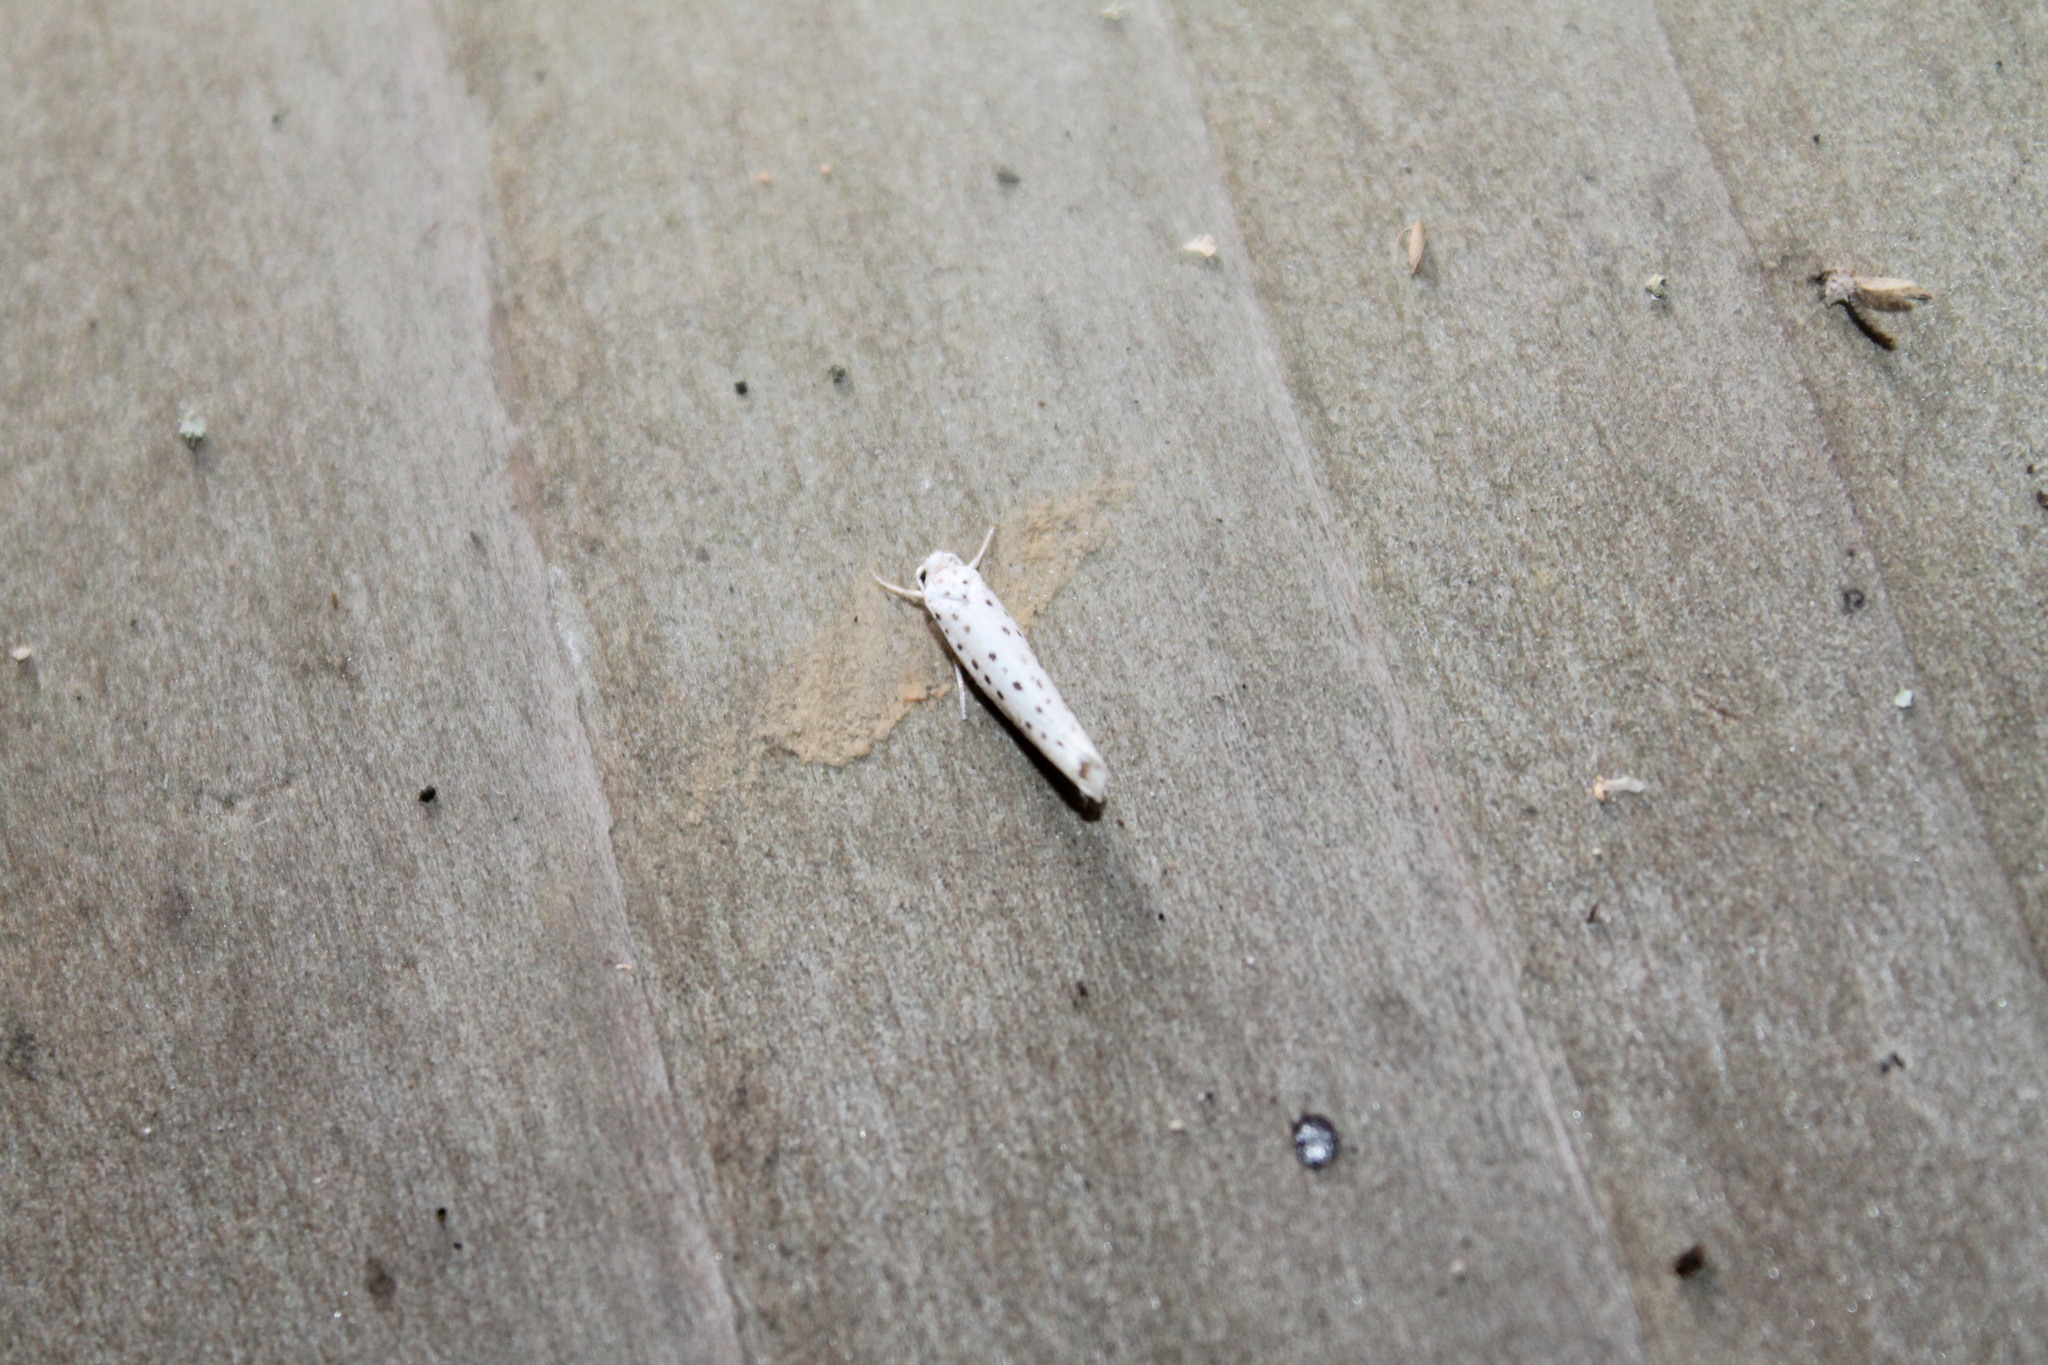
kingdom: Animalia
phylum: Arthropoda
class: Insecta
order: Lepidoptera
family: Yponomeutidae
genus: Yponomeuta
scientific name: Yponomeuta multipunctella
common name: American ermine moth
